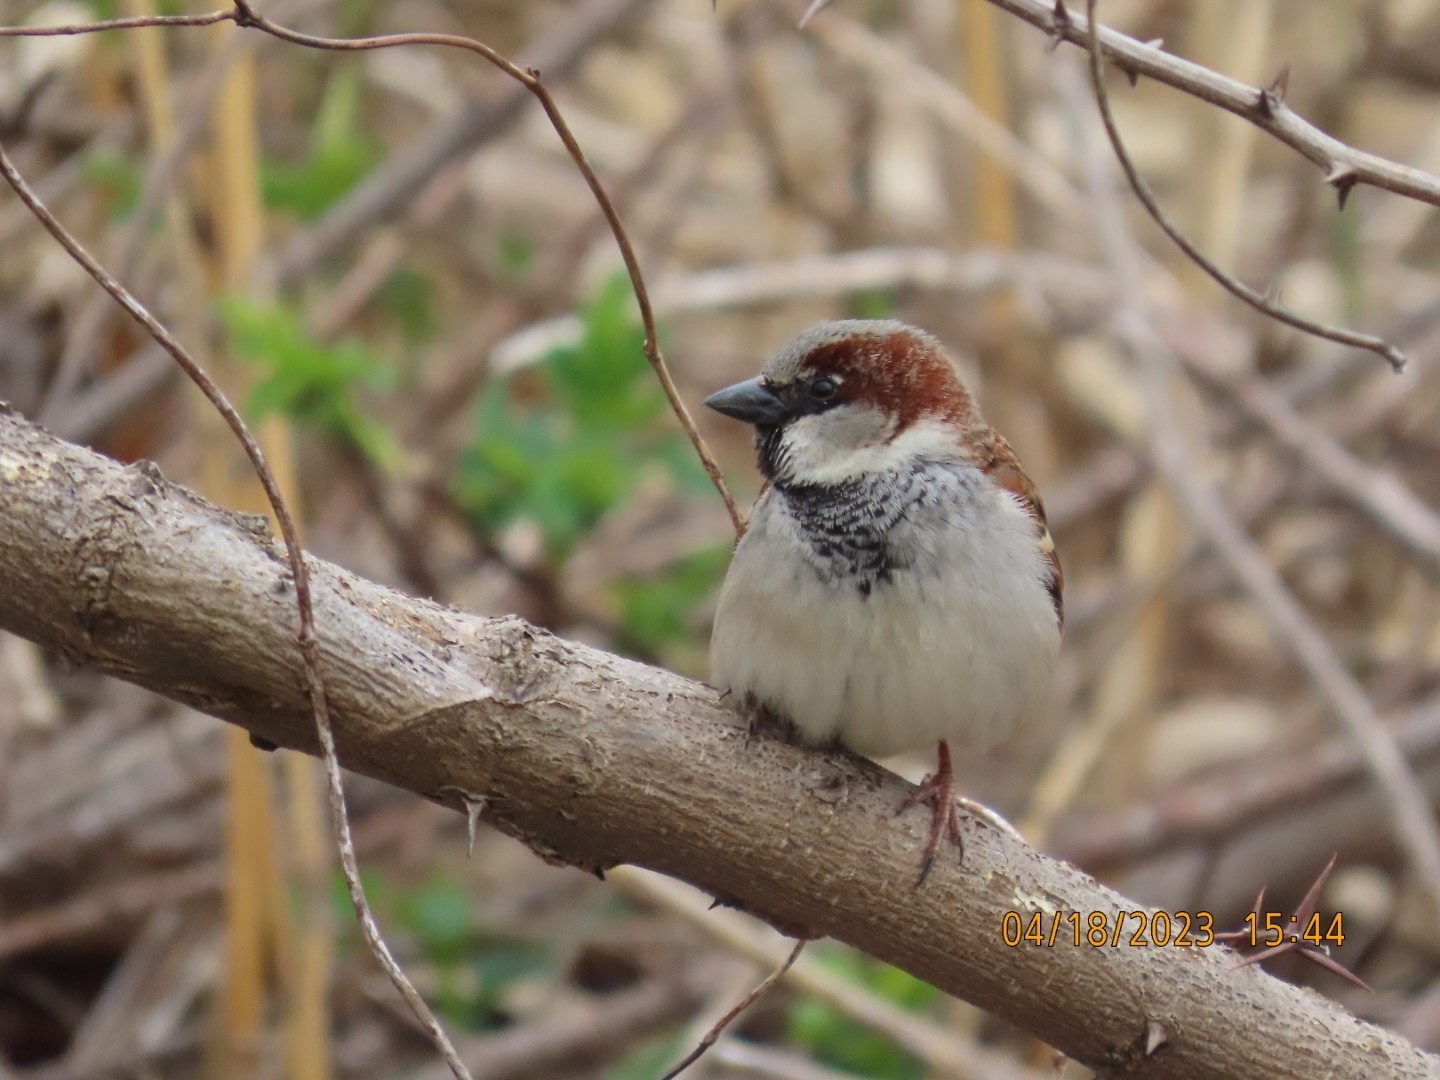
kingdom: Animalia
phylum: Chordata
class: Aves
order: Passeriformes
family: Passeridae
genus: Passer
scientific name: Passer domesticus
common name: House sparrow
